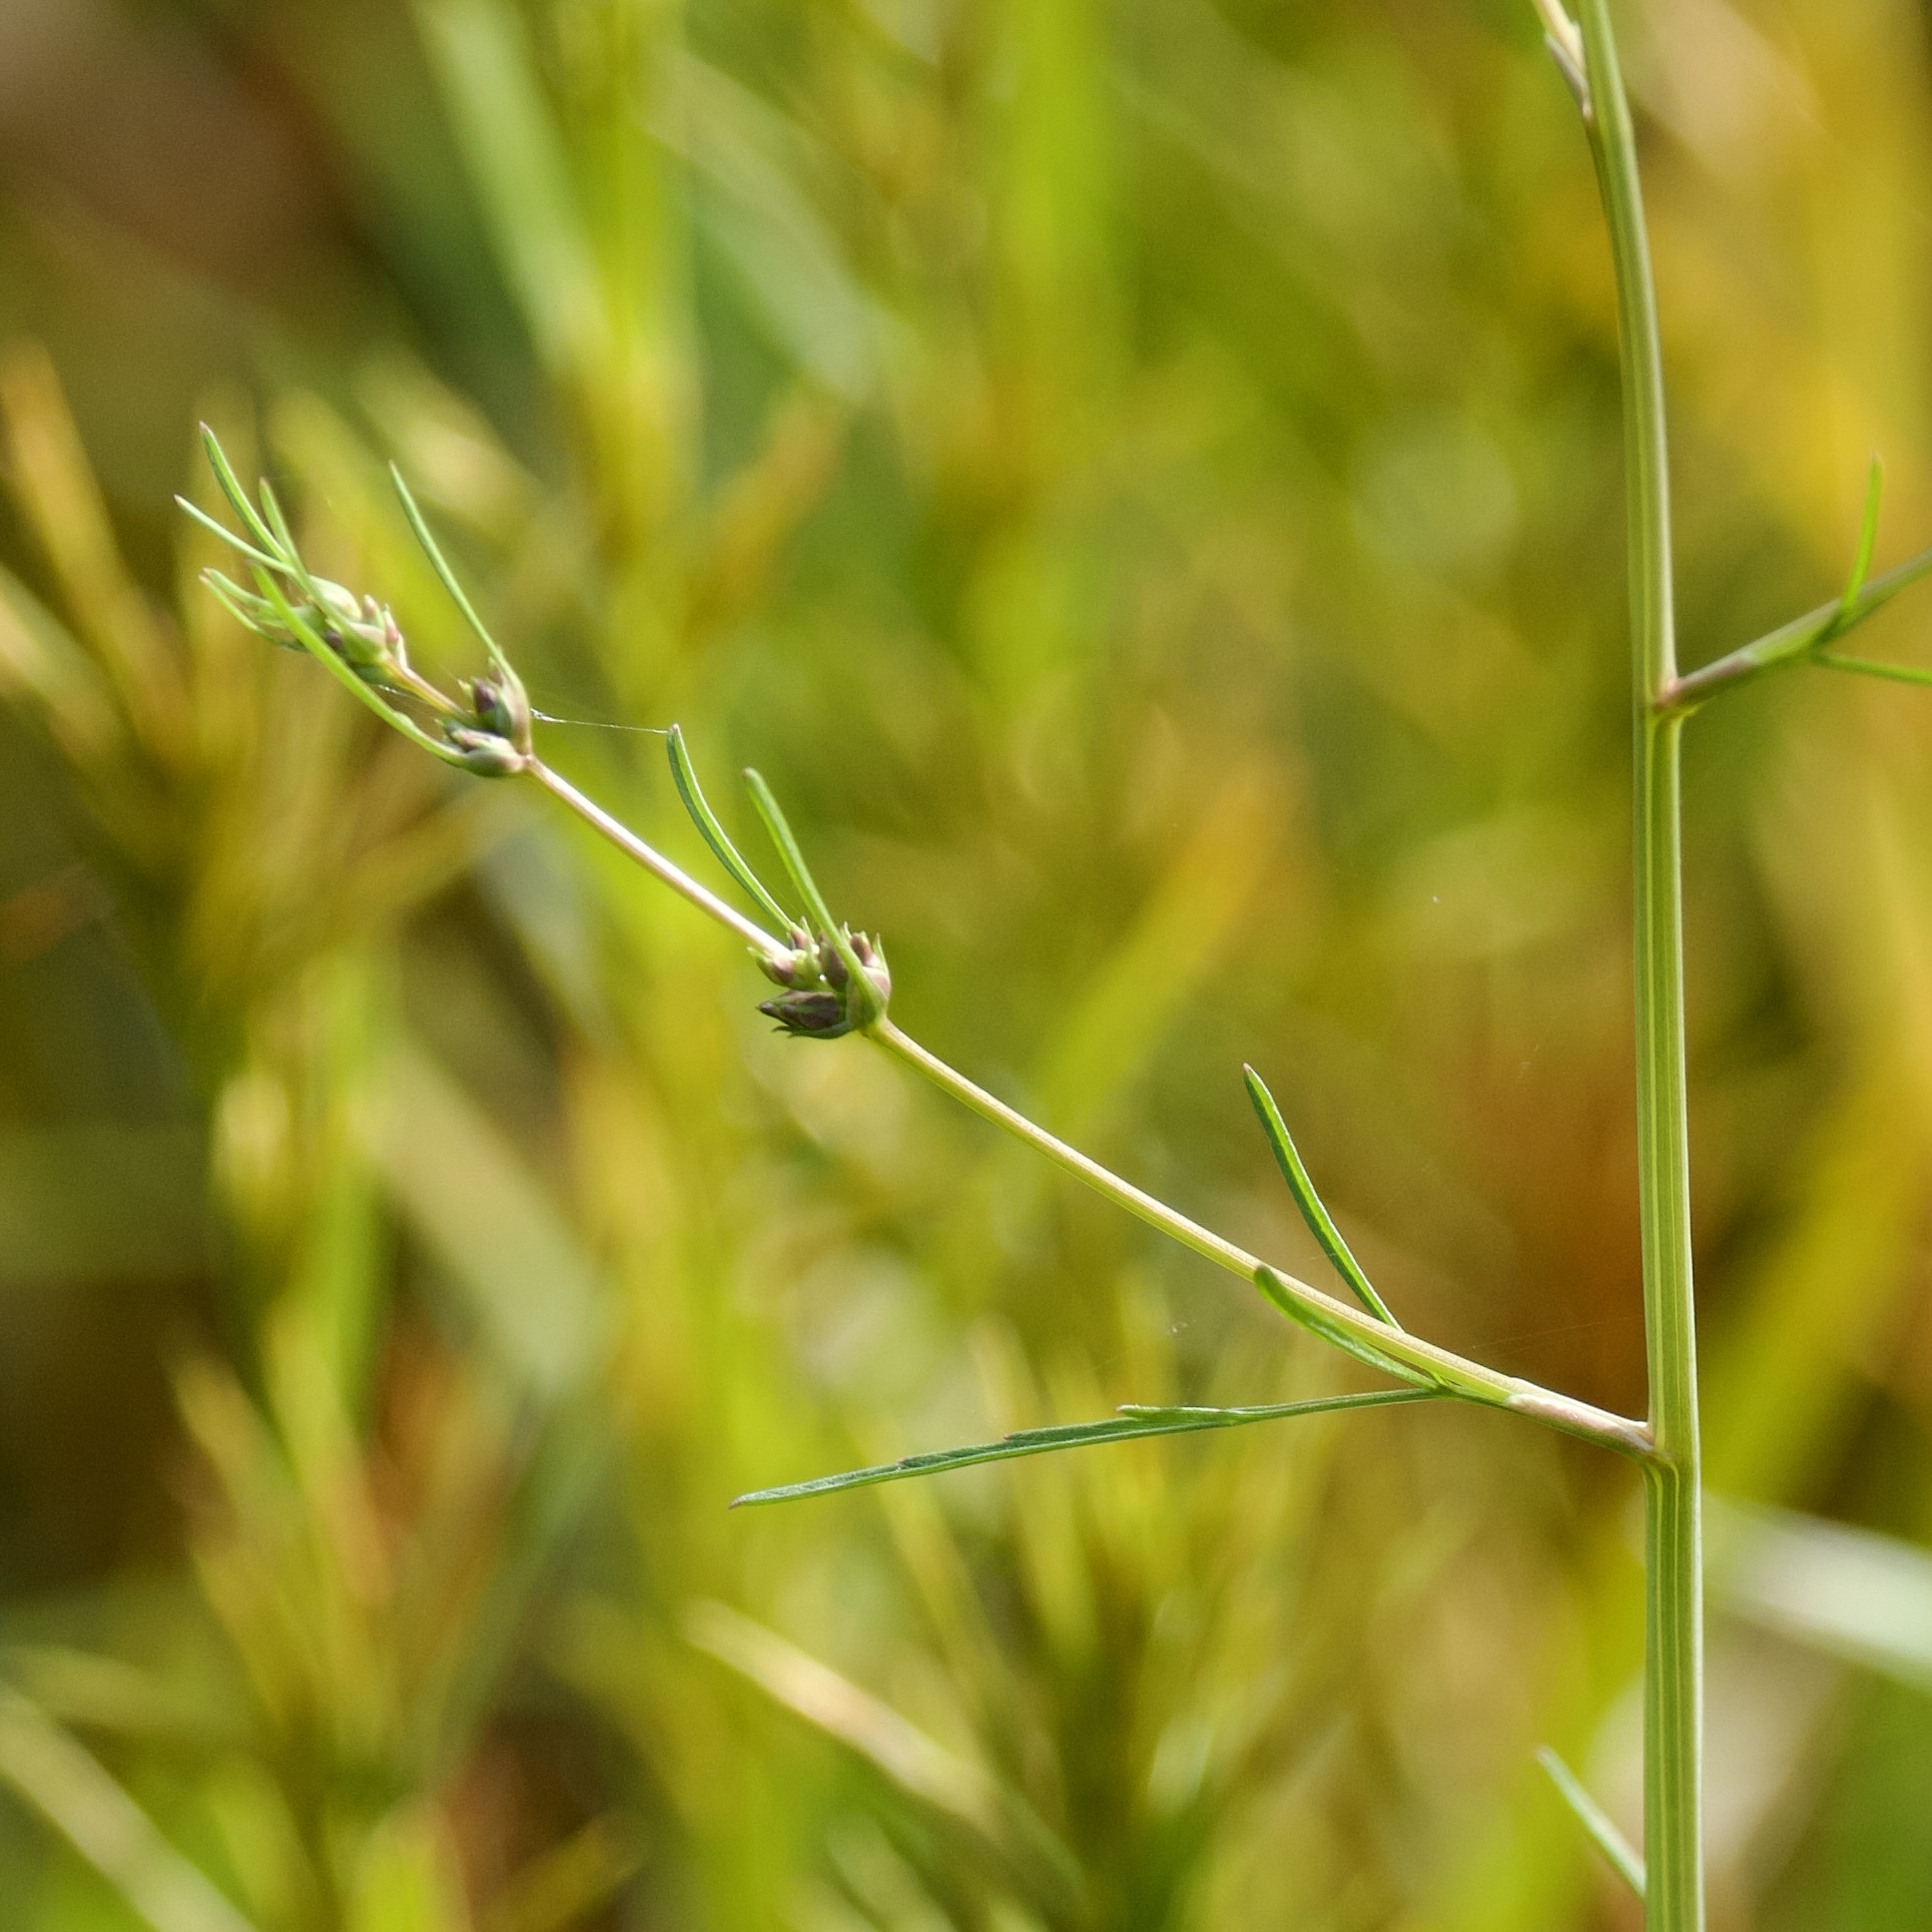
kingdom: Plantae
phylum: Tracheophyta
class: Magnoliopsida
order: Apiales
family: Apiaceae
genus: Cicuta
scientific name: Cicuta bulbifera
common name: Bulb-bearing water-hemlock
